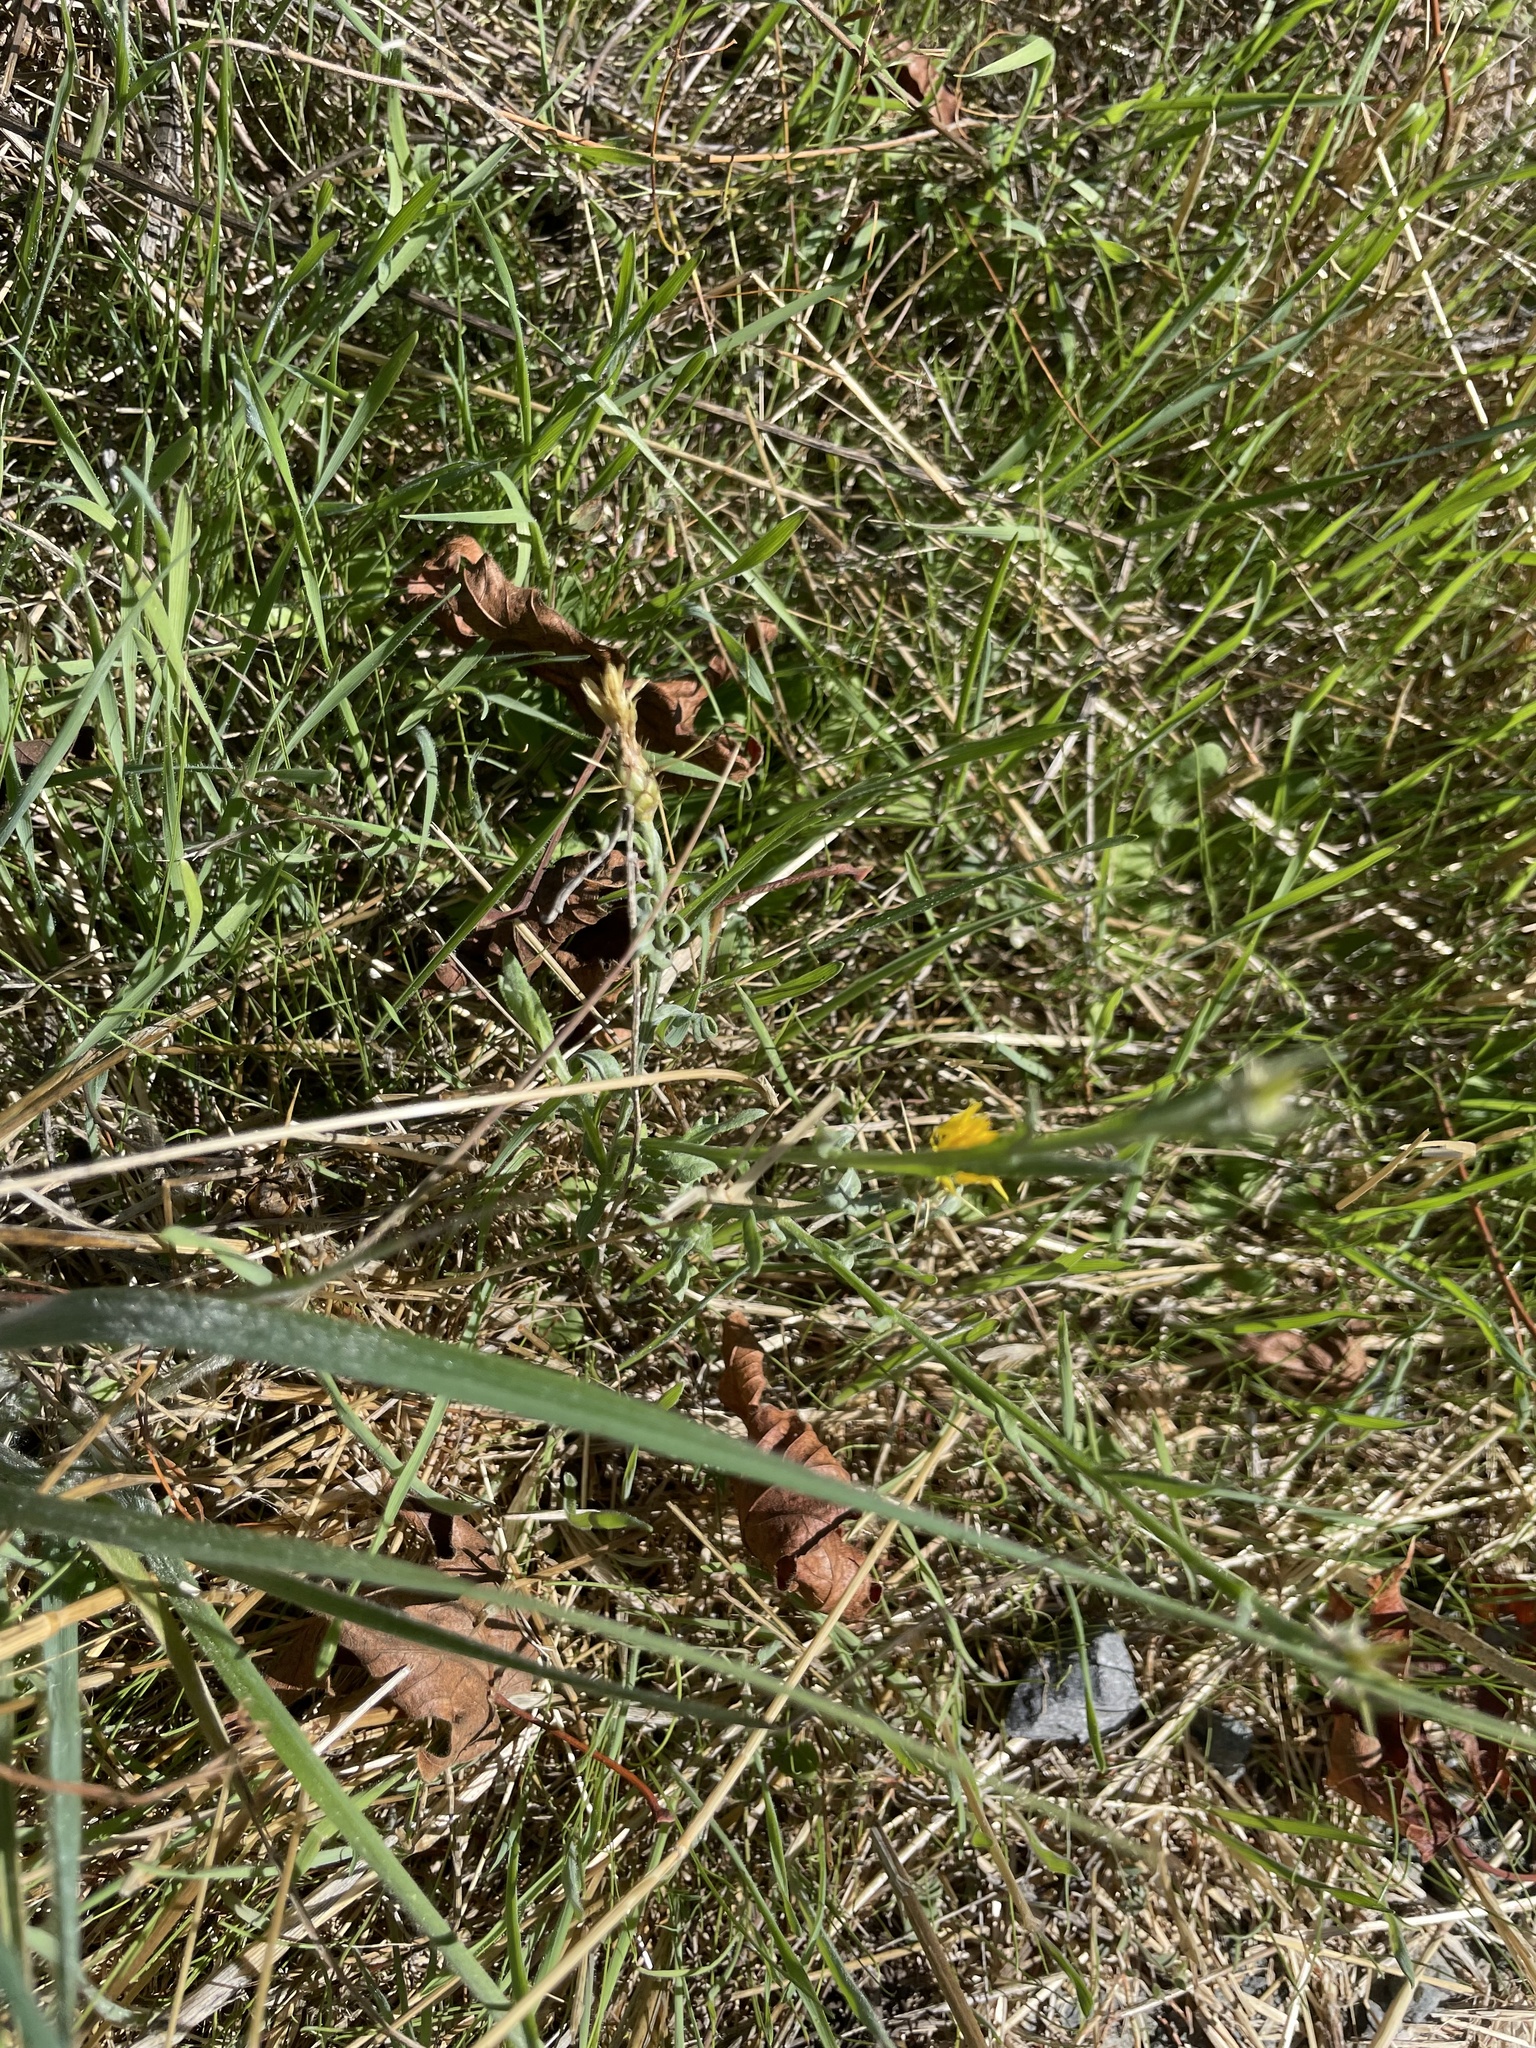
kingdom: Plantae
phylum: Tracheophyta
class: Magnoliopsida
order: Asterales
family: Asteraceae
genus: Centaurea
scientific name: Centaurea solstitialis
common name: Yellow star-thistle
